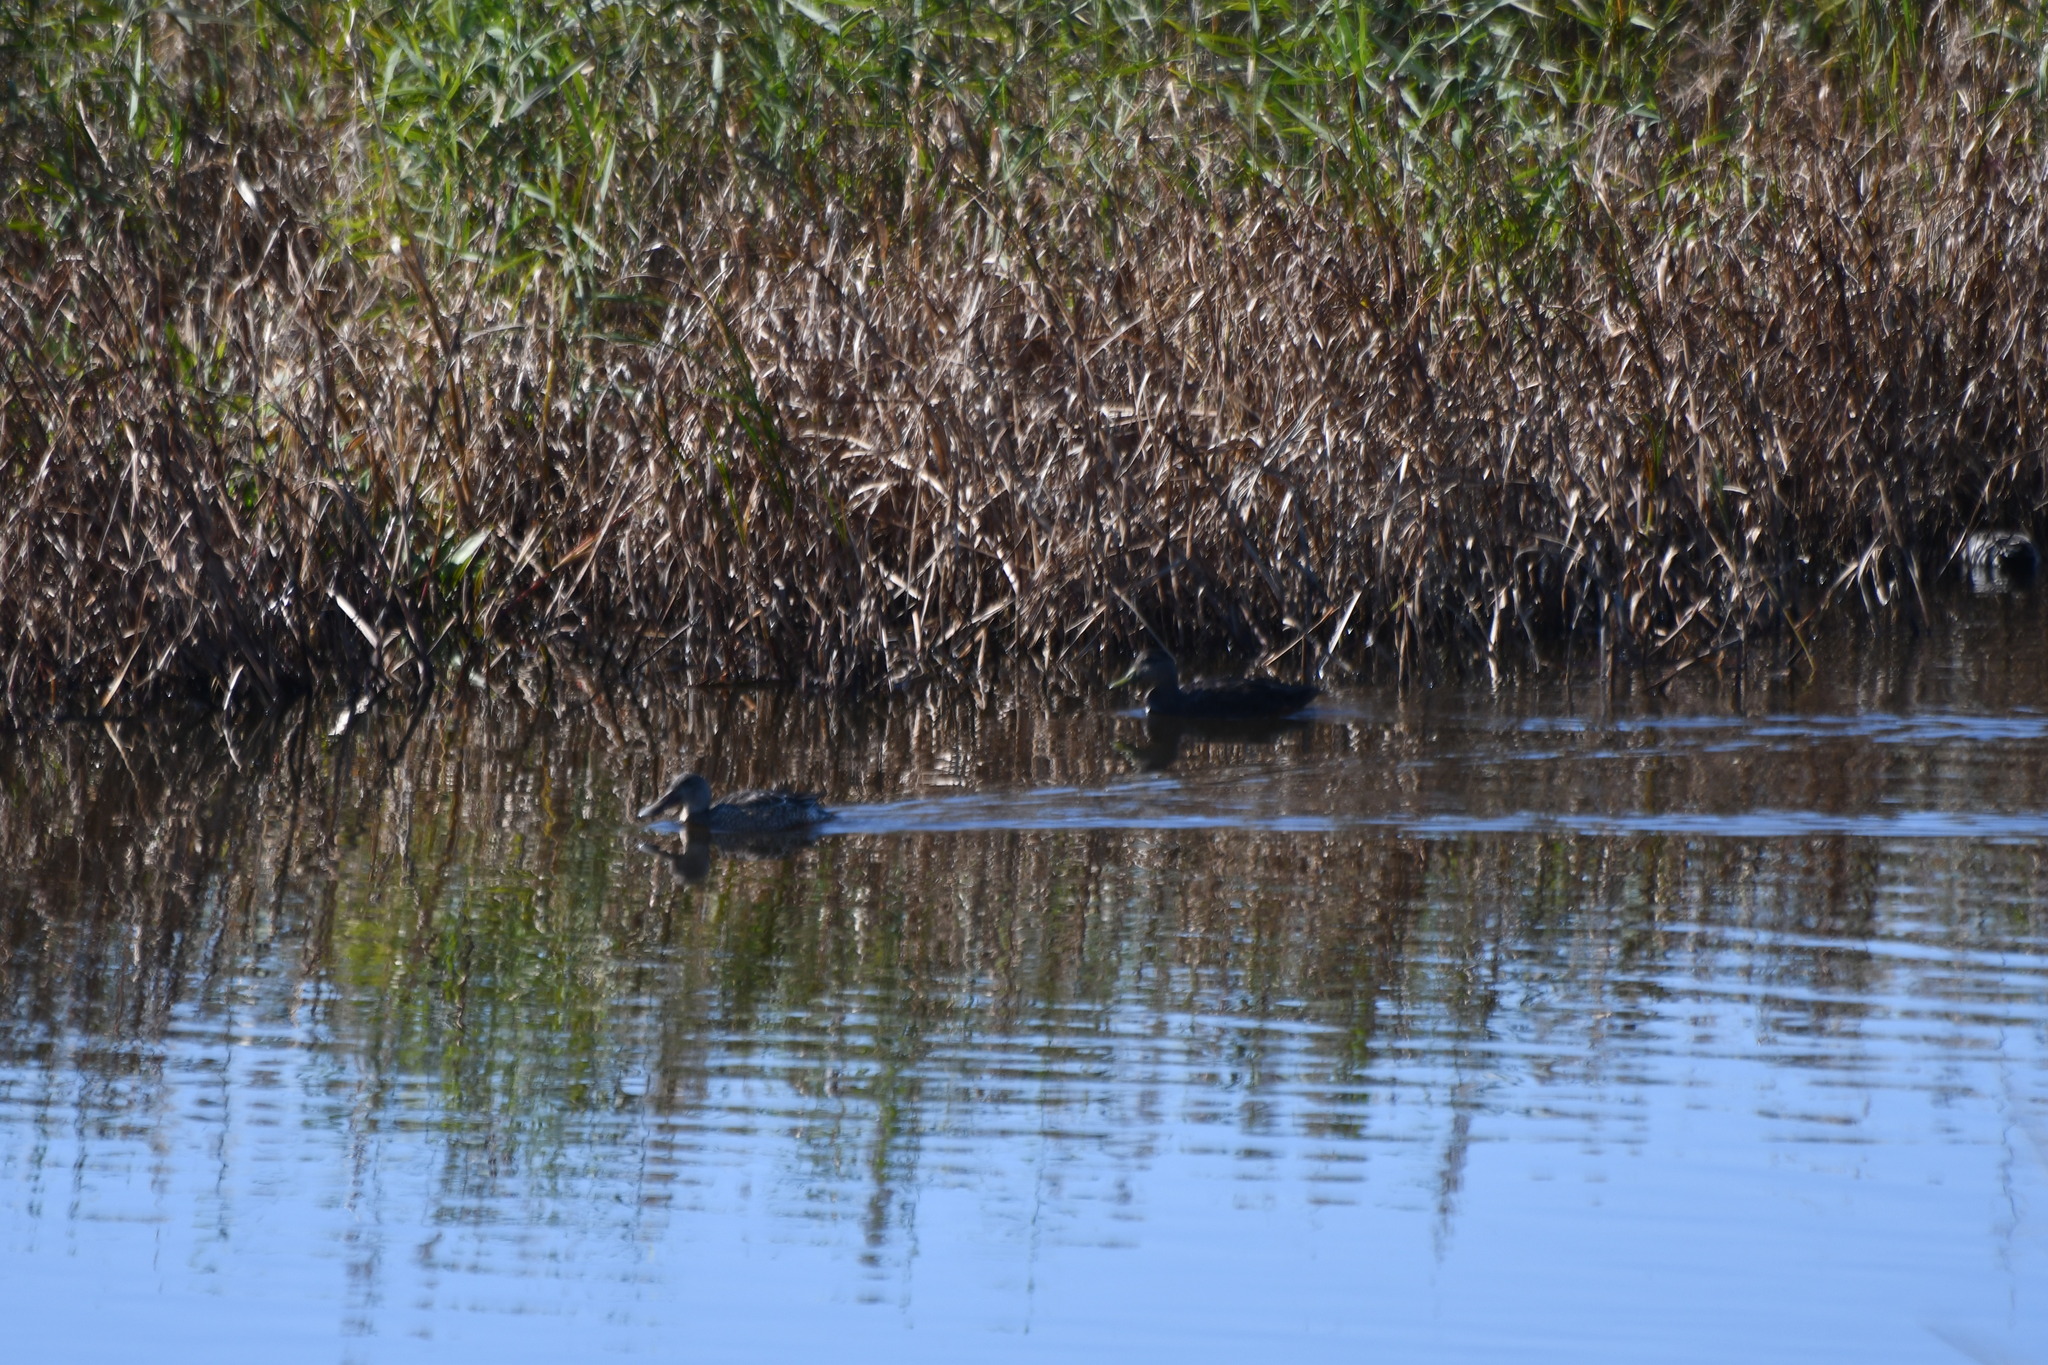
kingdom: Animalia
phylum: Chordata
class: Aves
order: Anseriformes
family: Anatidae
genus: Spatula
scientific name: Spatula clypeata
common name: Northern shoveler
